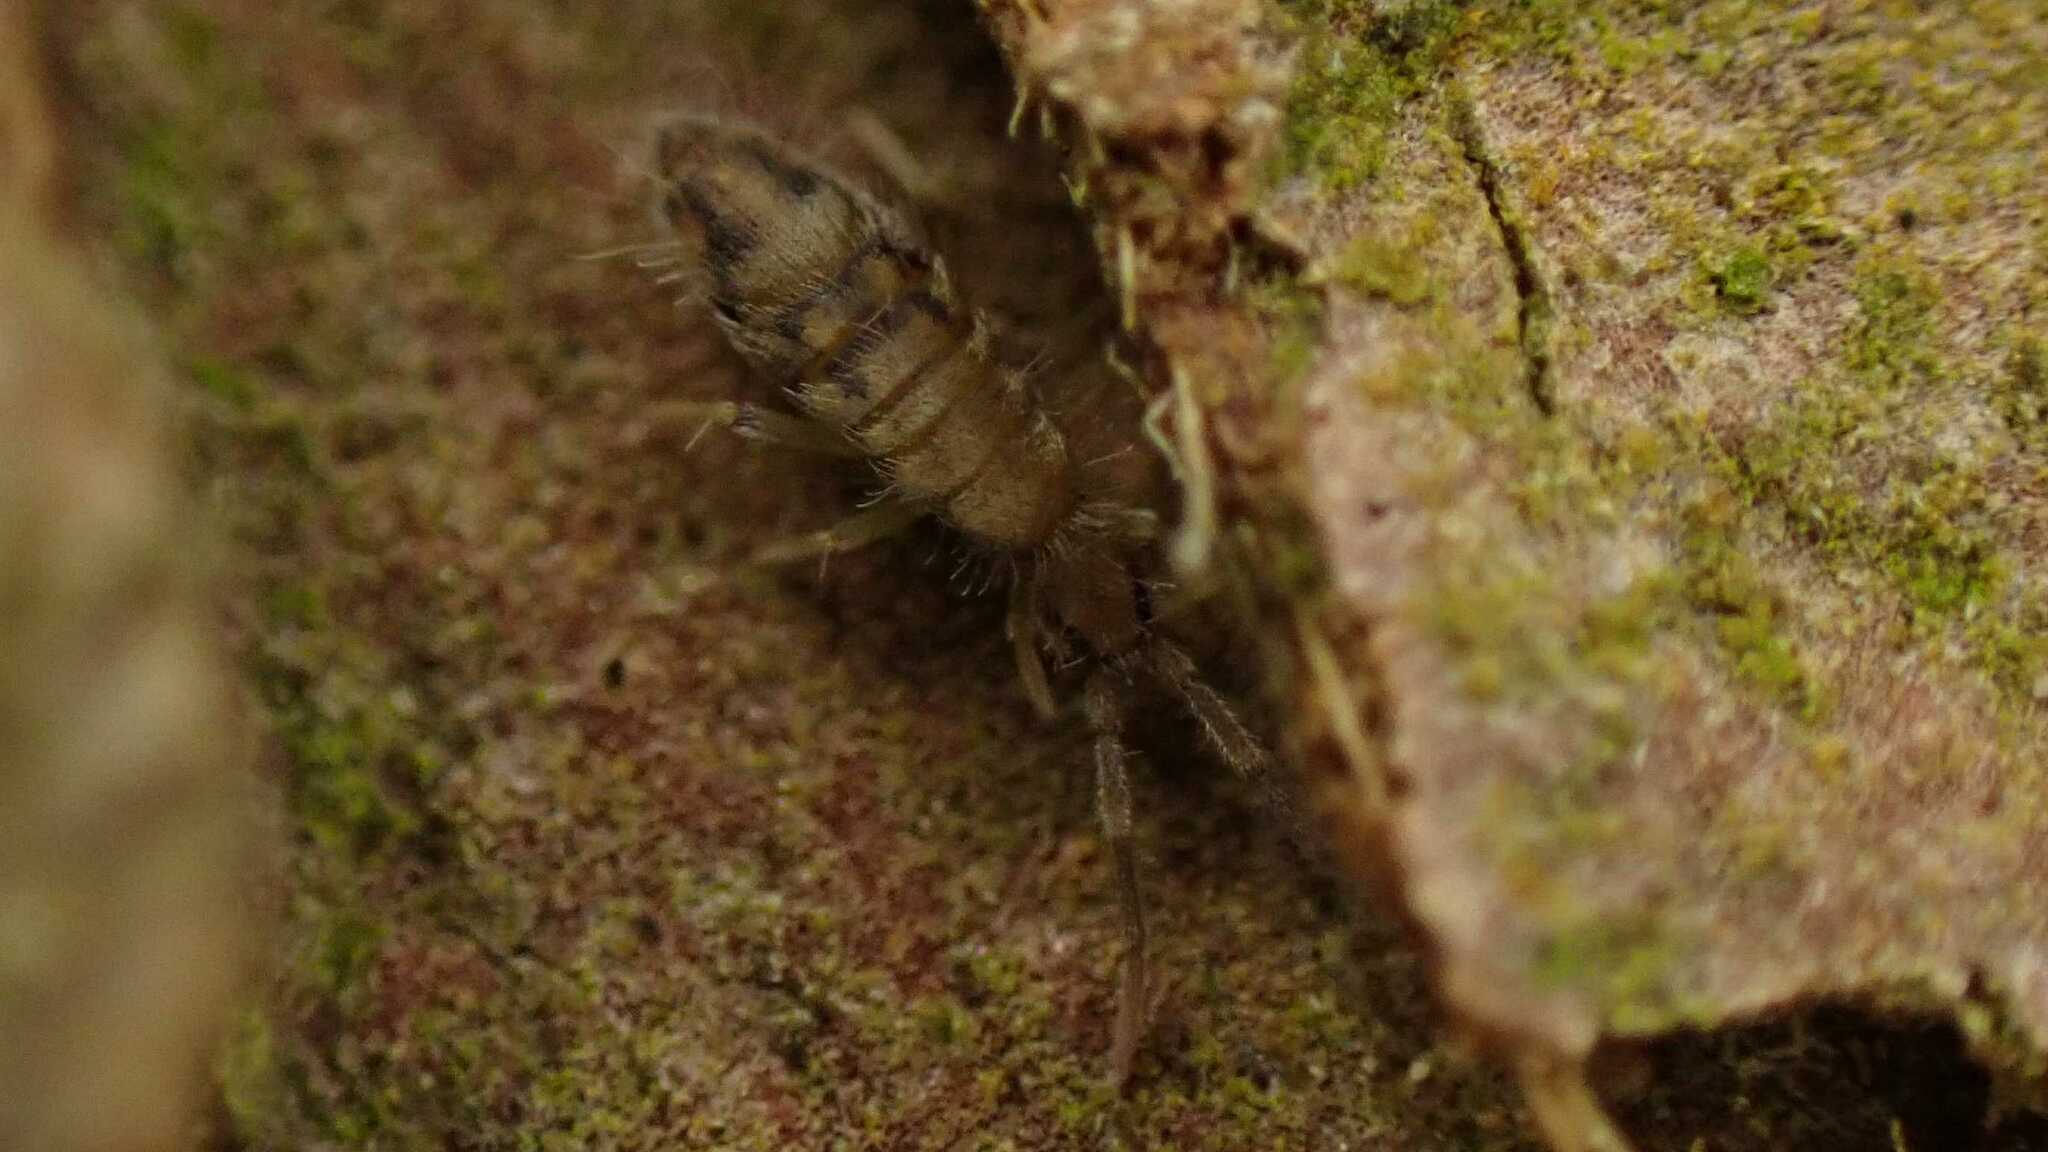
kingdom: Animalia
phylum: Arthropoda
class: Collembola
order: Entomobryomorpha
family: Entomobryidae
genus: Entomobrya
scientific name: Entomobrya nivalis
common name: Cosmopolitan springtail
